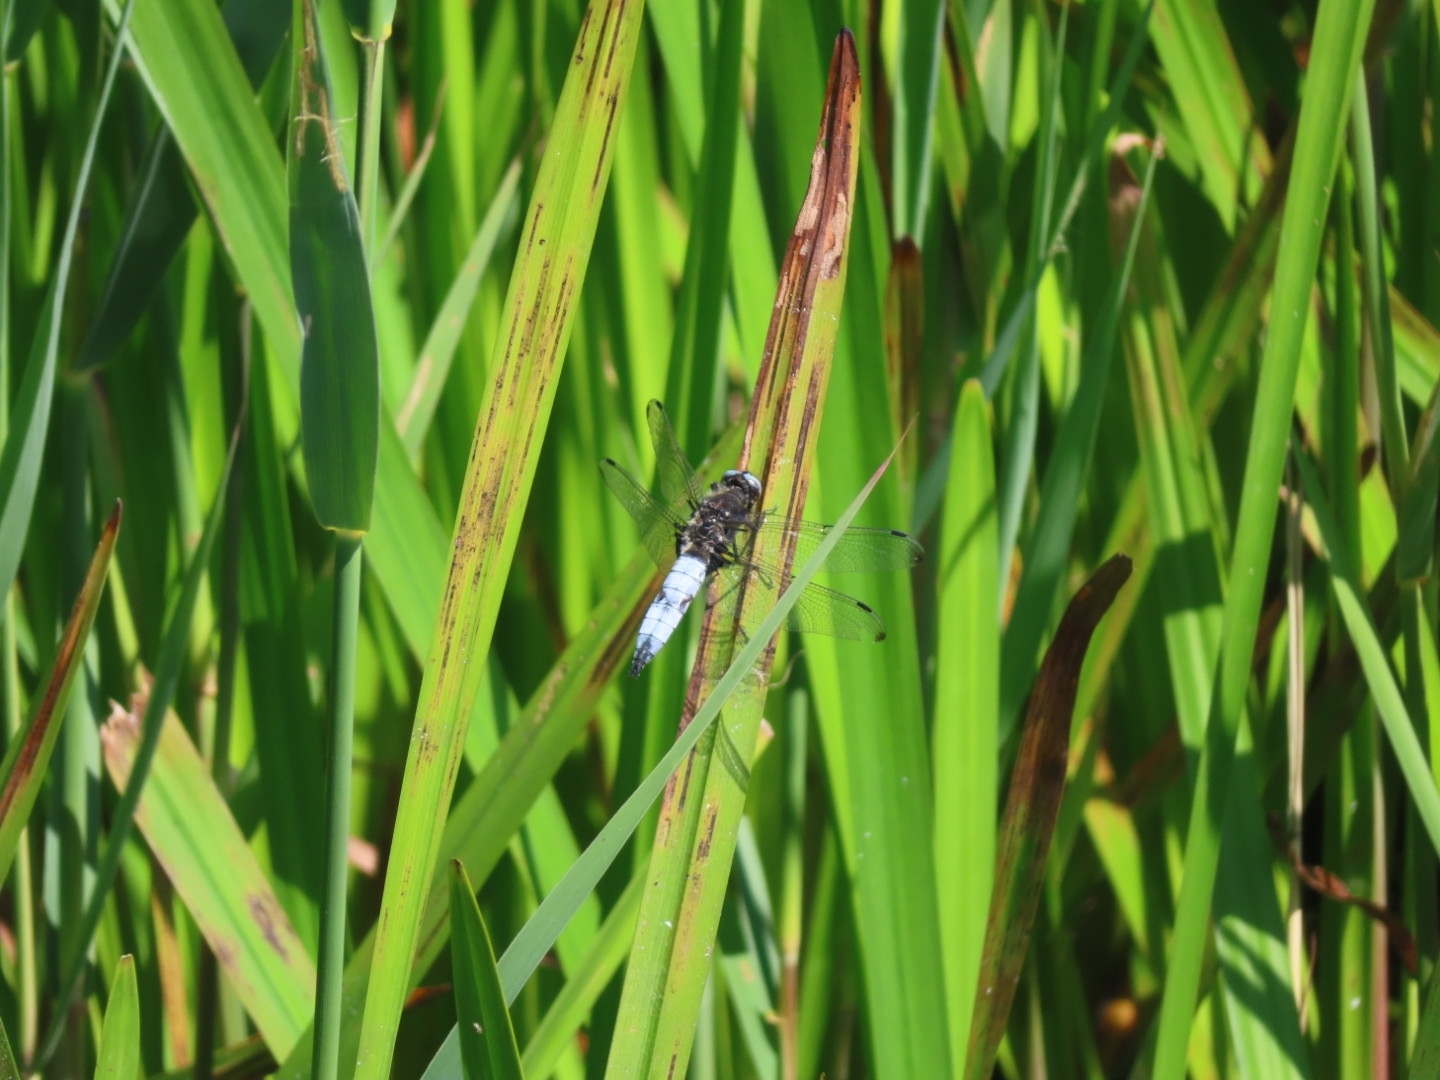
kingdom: Animalia
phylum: Arthropoda
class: Insecta
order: Odonata
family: Libellulidae
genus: Libellula
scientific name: Libellula fulva
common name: Blue chaser
